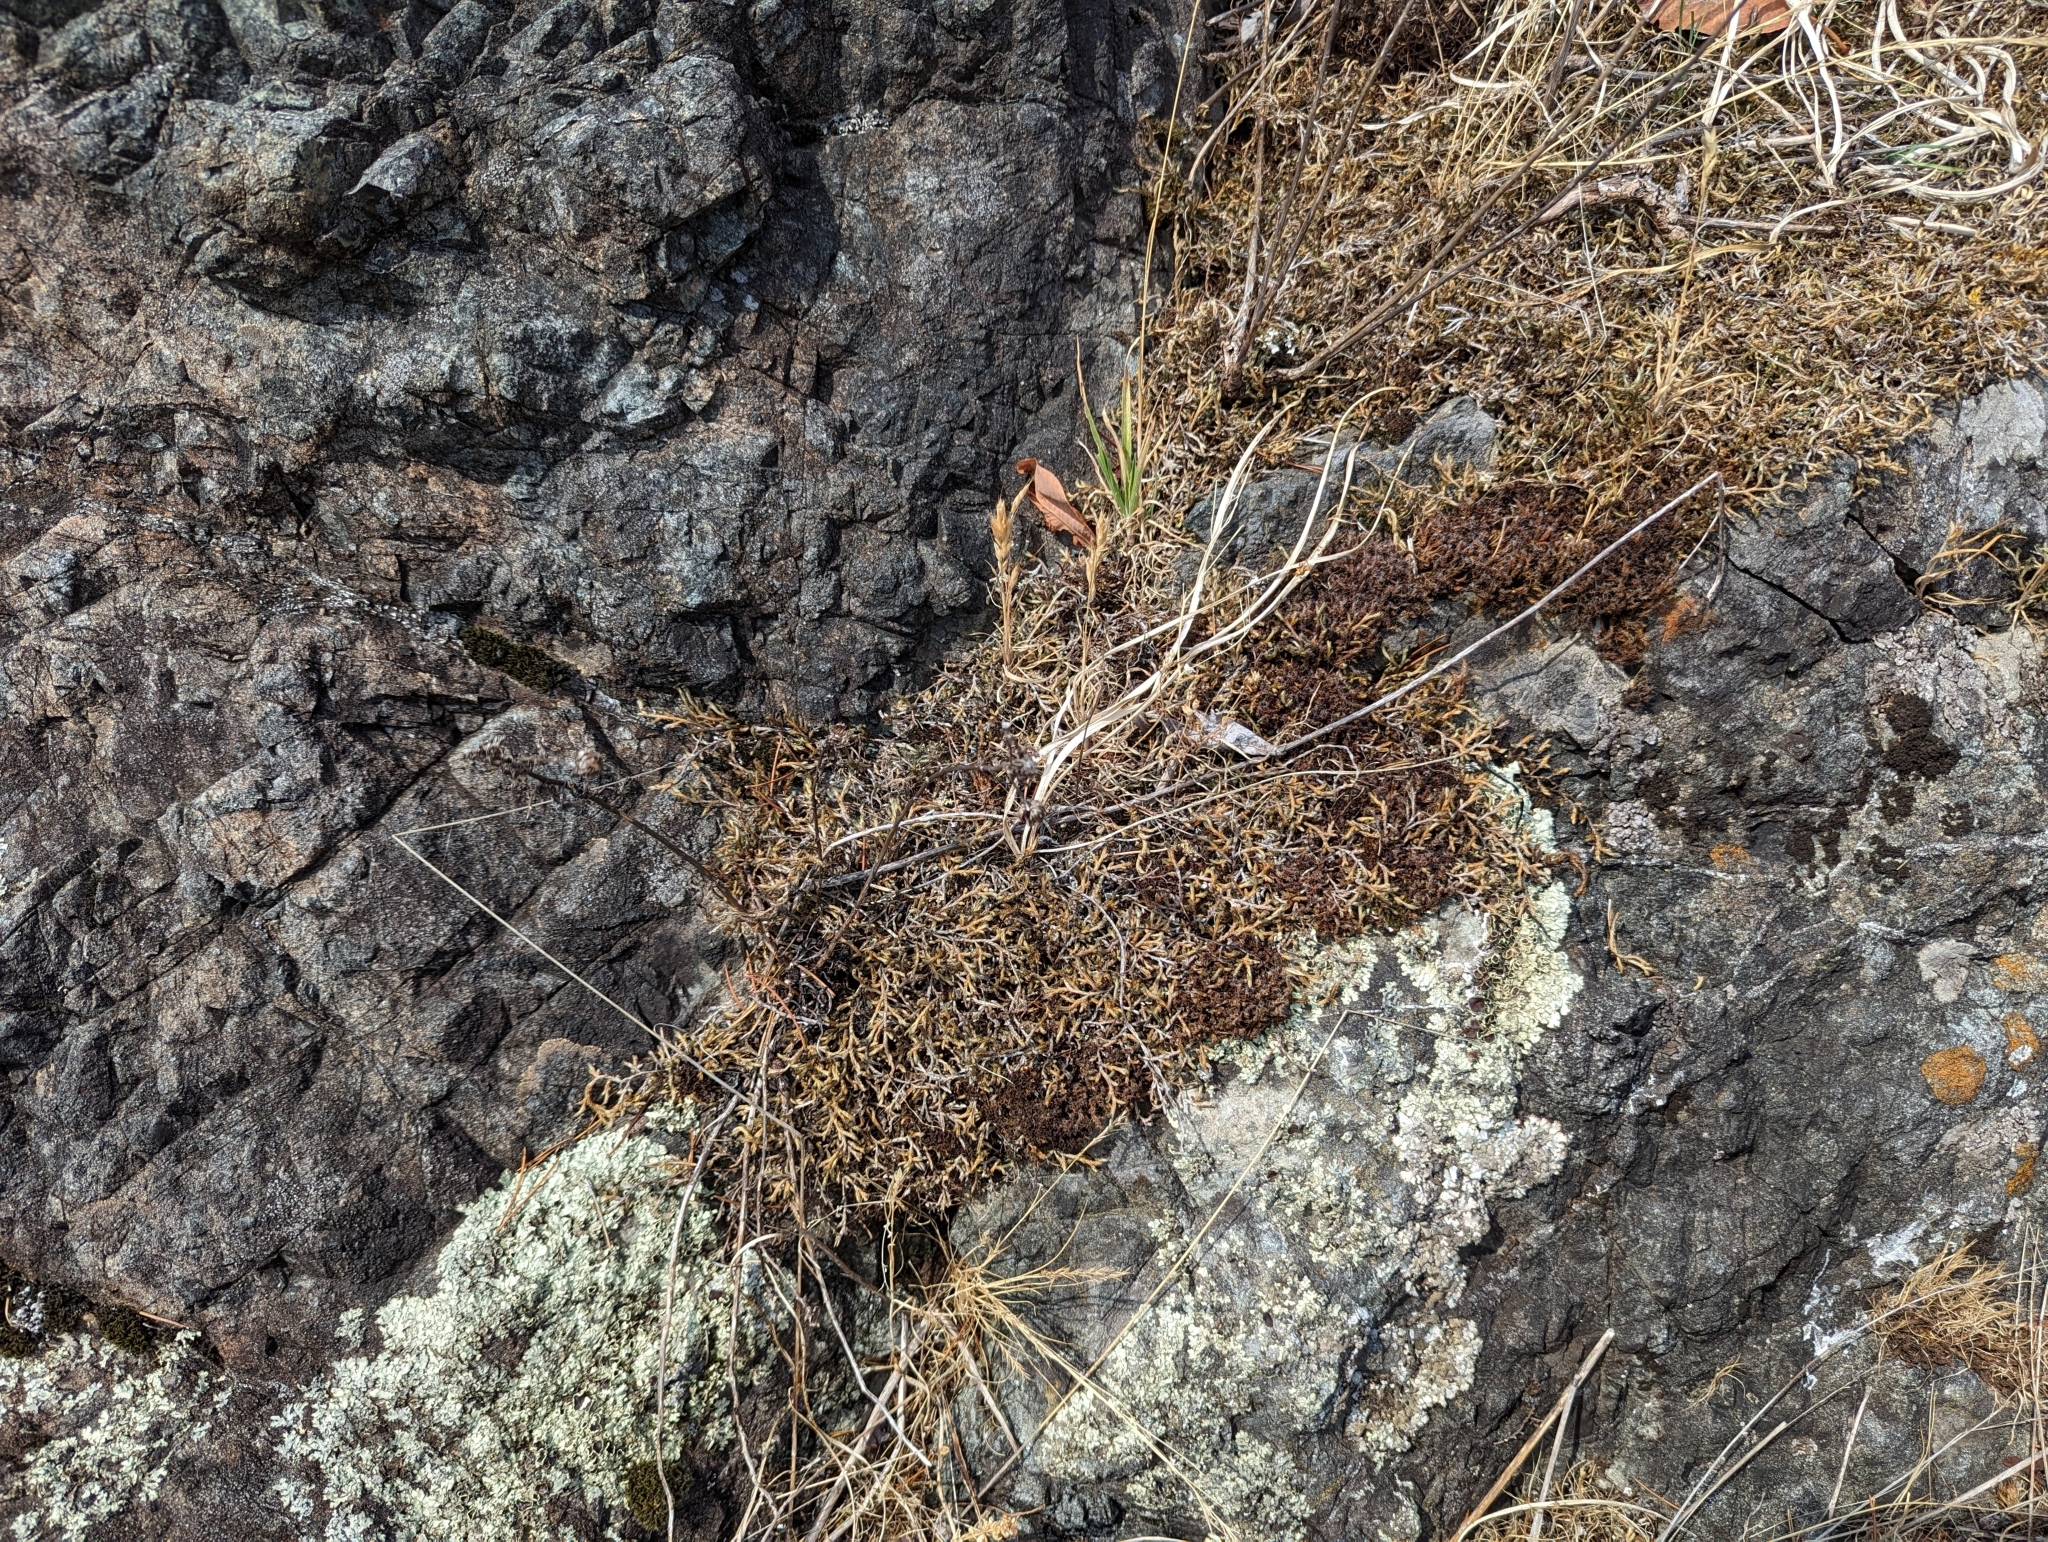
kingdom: Plantae
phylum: Tracheophyta
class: Lycopodiopsida
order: Selaginellales
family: Selaginellaceae
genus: Selaginella
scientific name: Selaginella wallacei
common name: Wallace's selaginella
